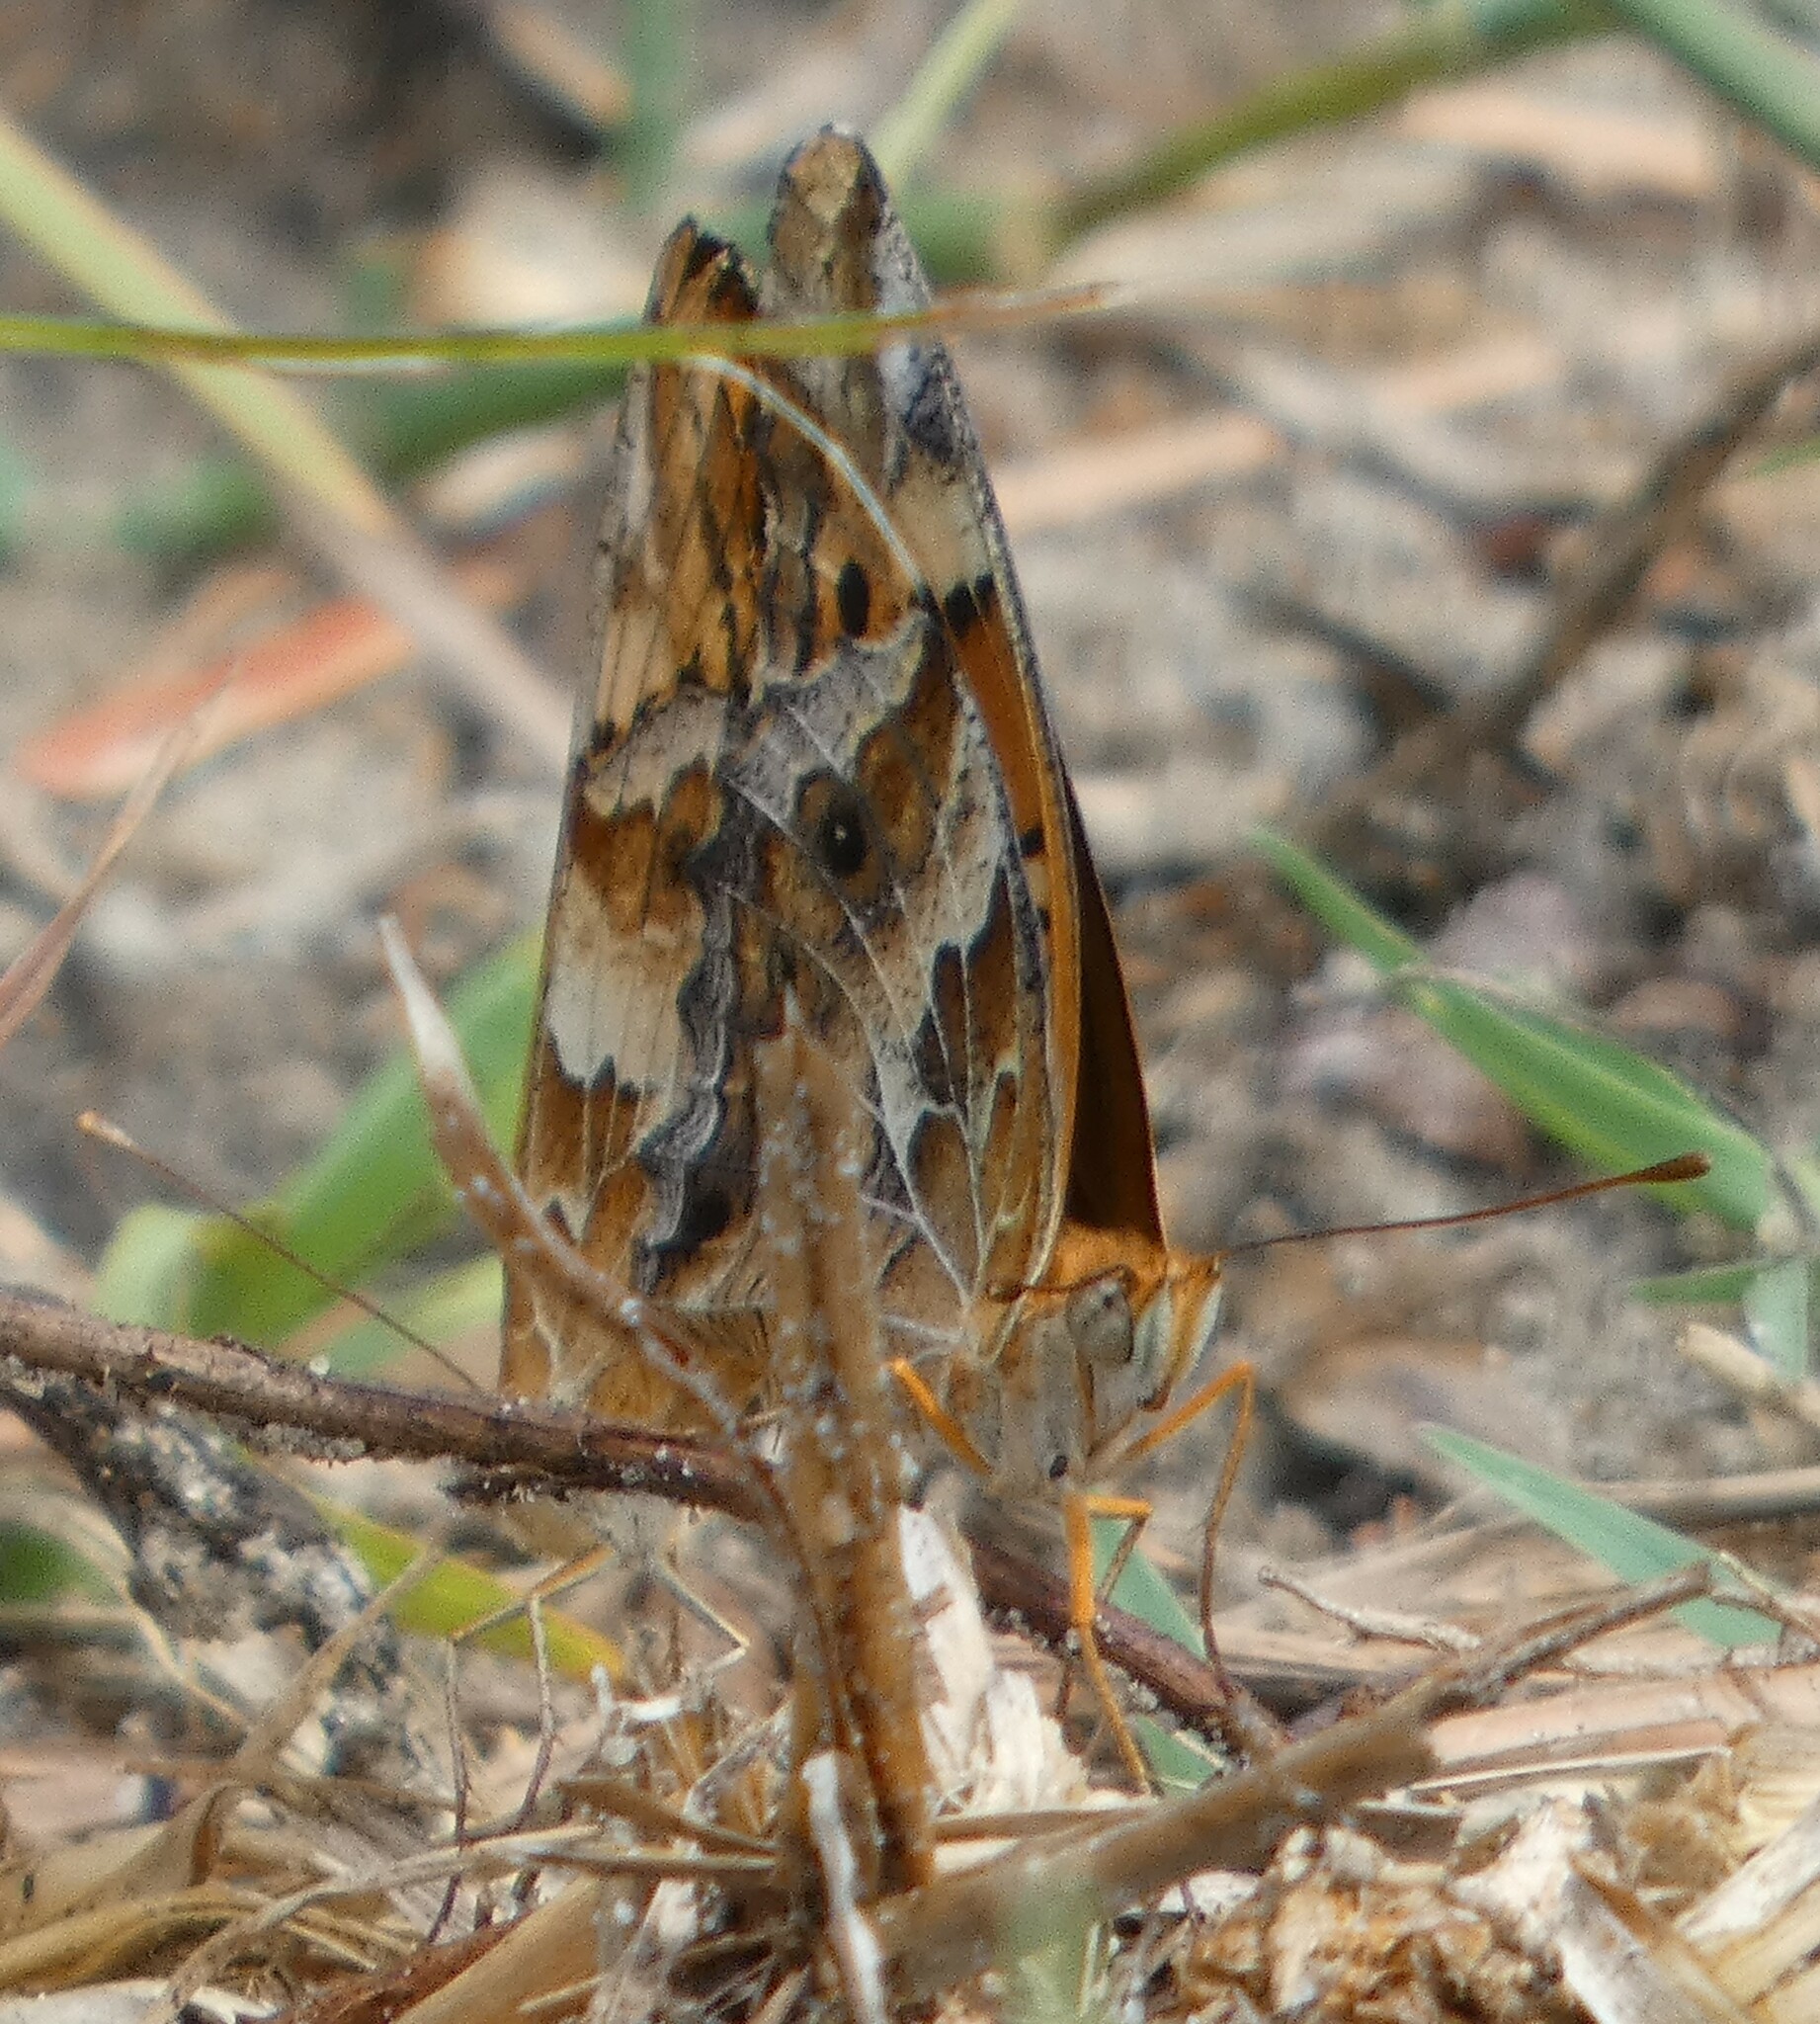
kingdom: Animalia
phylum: Arthropoda
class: Insecta
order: Lepidoptera
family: Nymphalidae
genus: Euptoieta
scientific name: Euptoieta claudia
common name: Variegated fritillary
